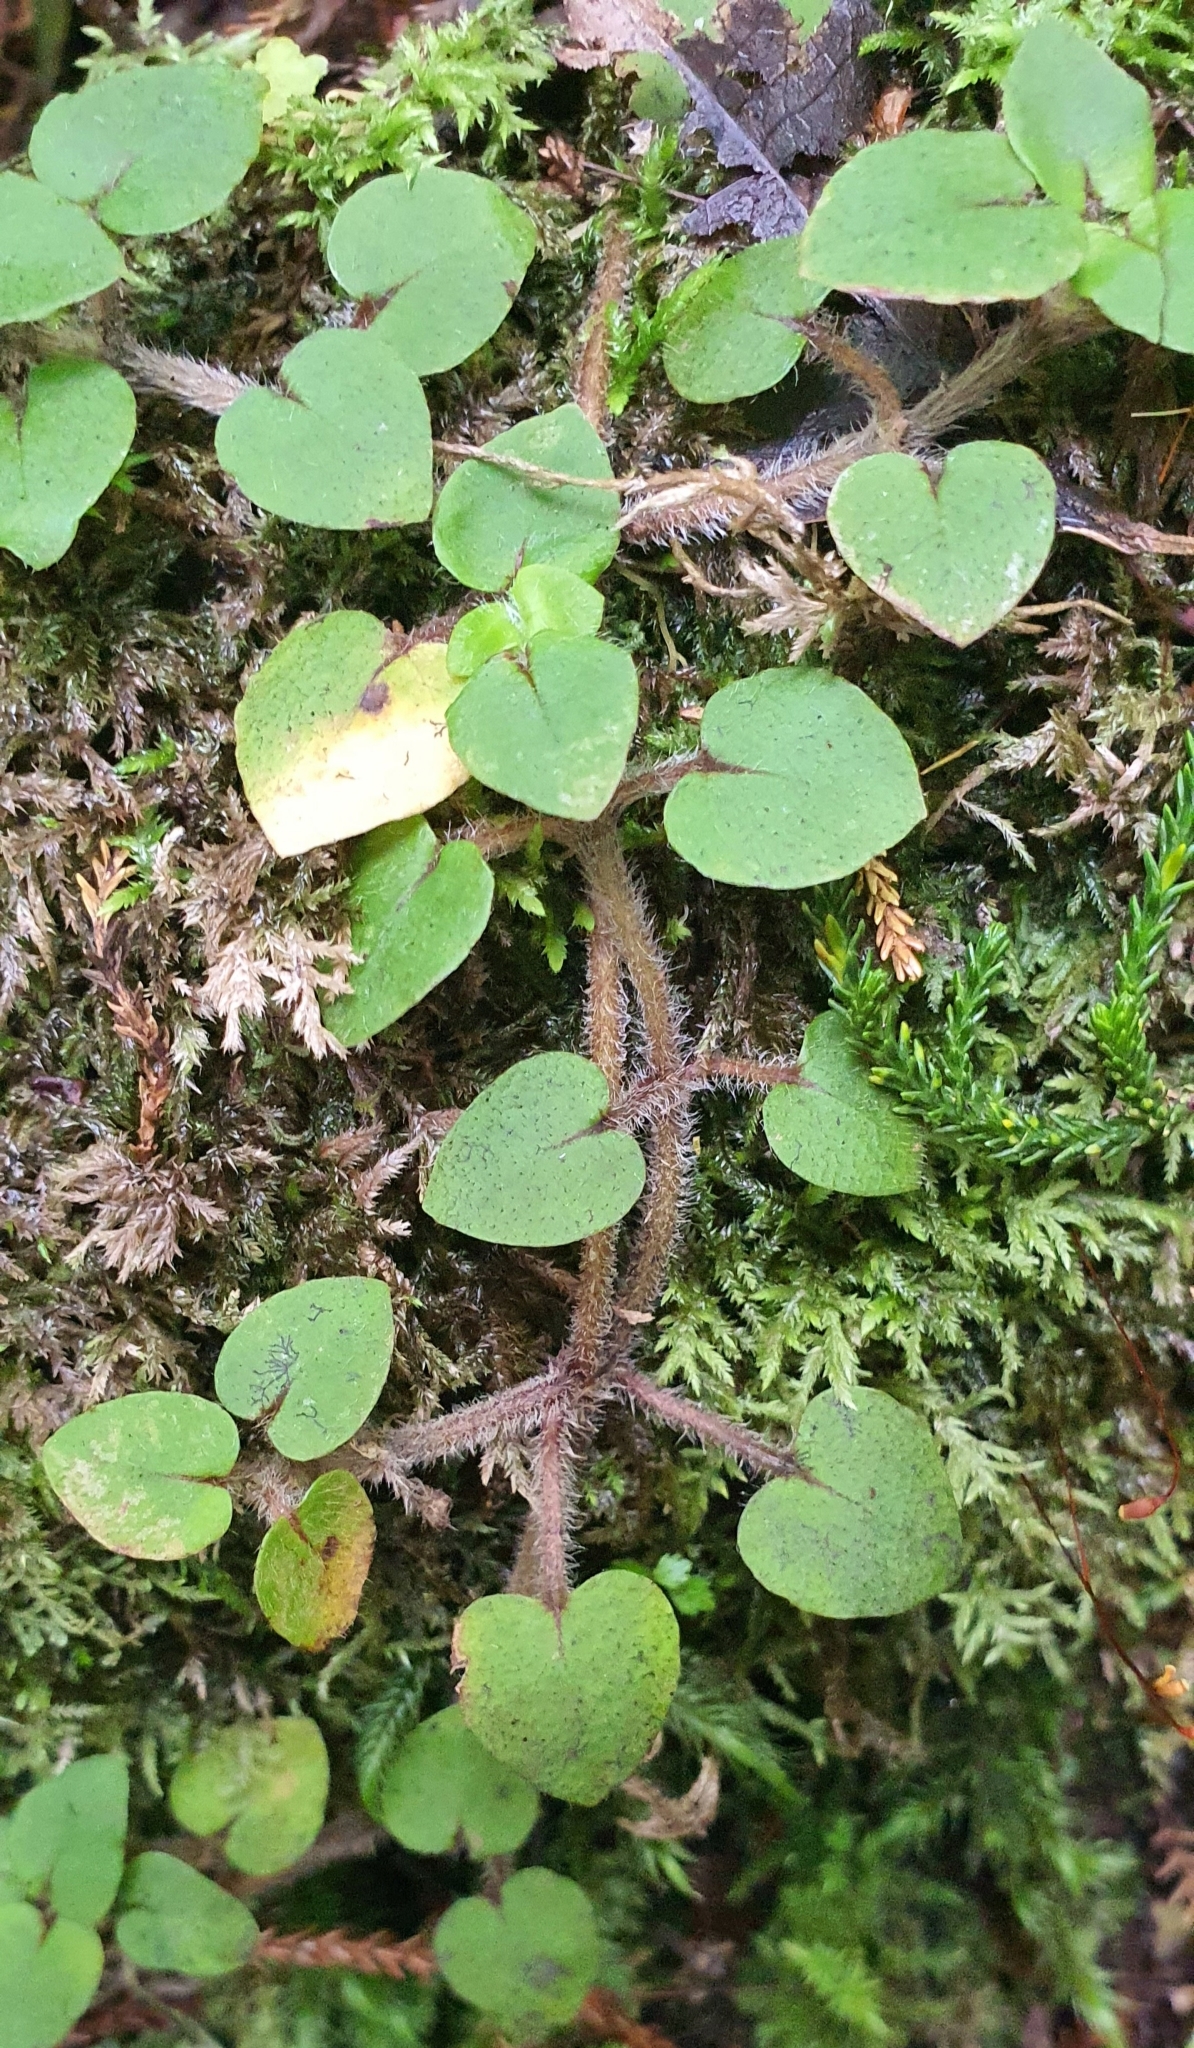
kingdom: Plantae
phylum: Tracheophyta
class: Magnoliopsida
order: Gentianales
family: Rubiaceae
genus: Nertera
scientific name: Nertera villosa
